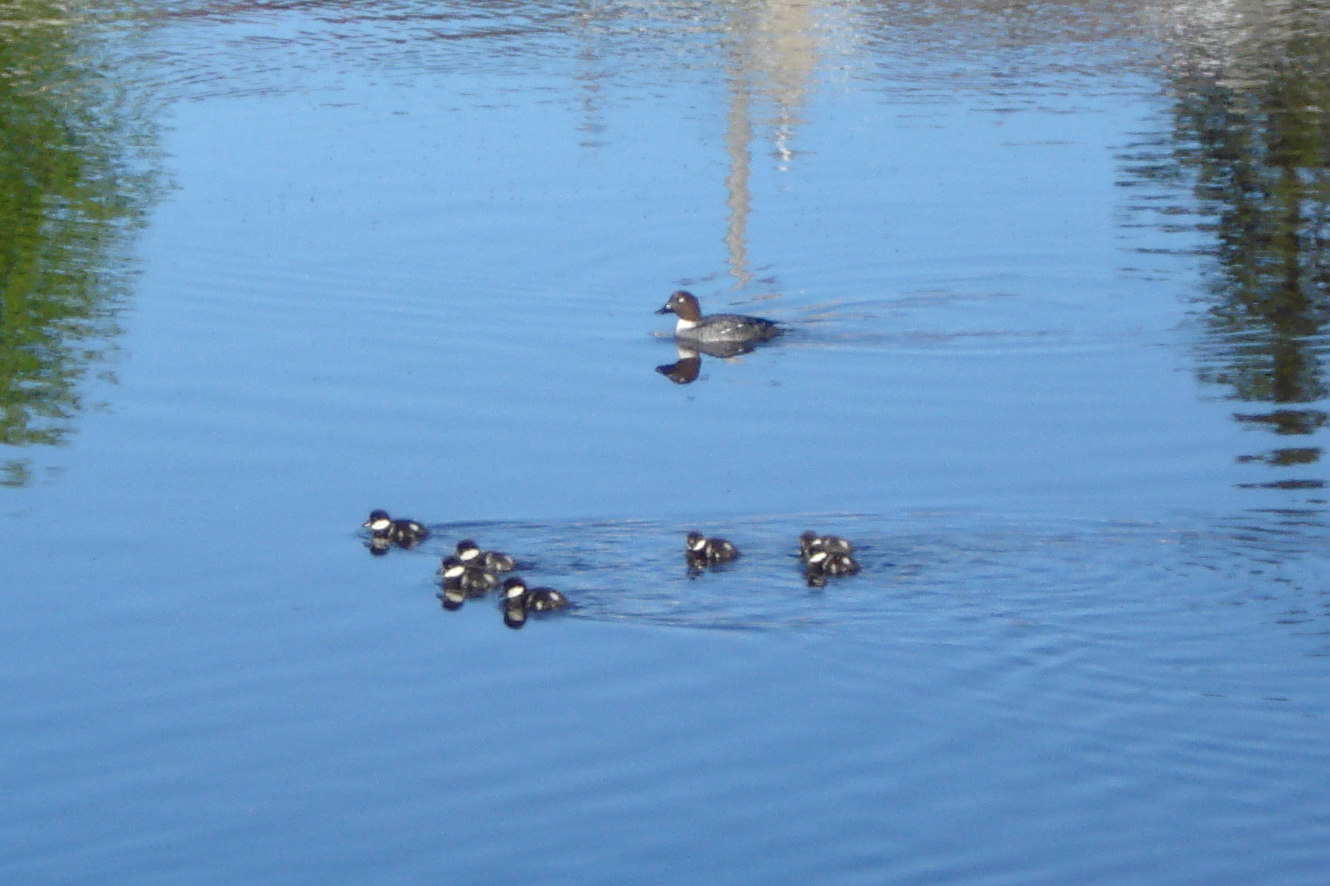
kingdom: Animalia
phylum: Chordata
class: Aves
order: Anseriformes
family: Anatidae
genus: Bucephala
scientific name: Bucephala clangula
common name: Common goldeneye
